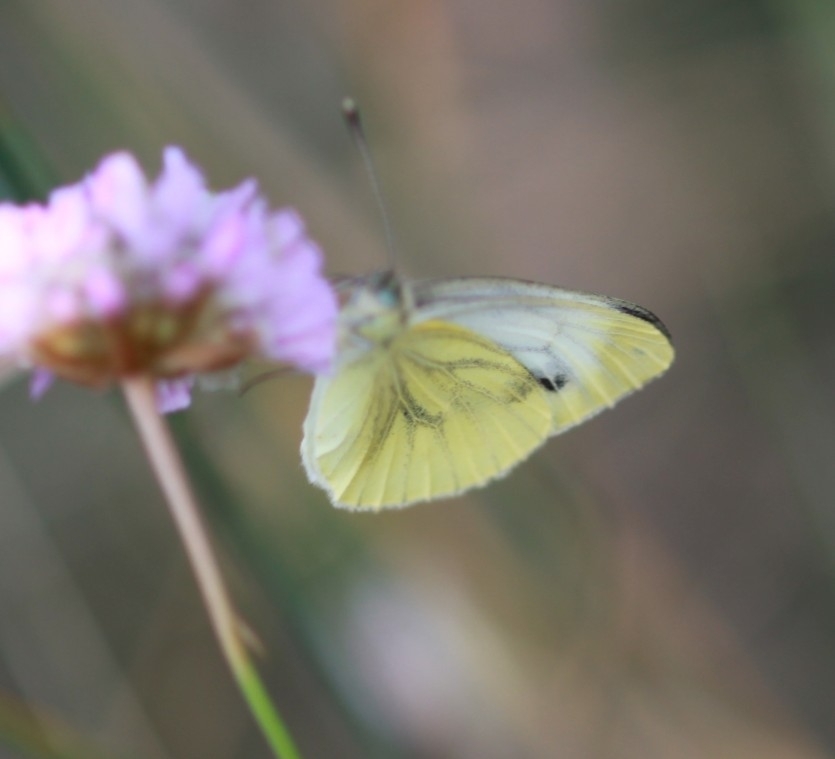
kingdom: Animalia
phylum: Arthropoda
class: Insecta
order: Lepidoptera
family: Pieridae
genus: Pieris
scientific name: Pieris napi
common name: Green-veined white
